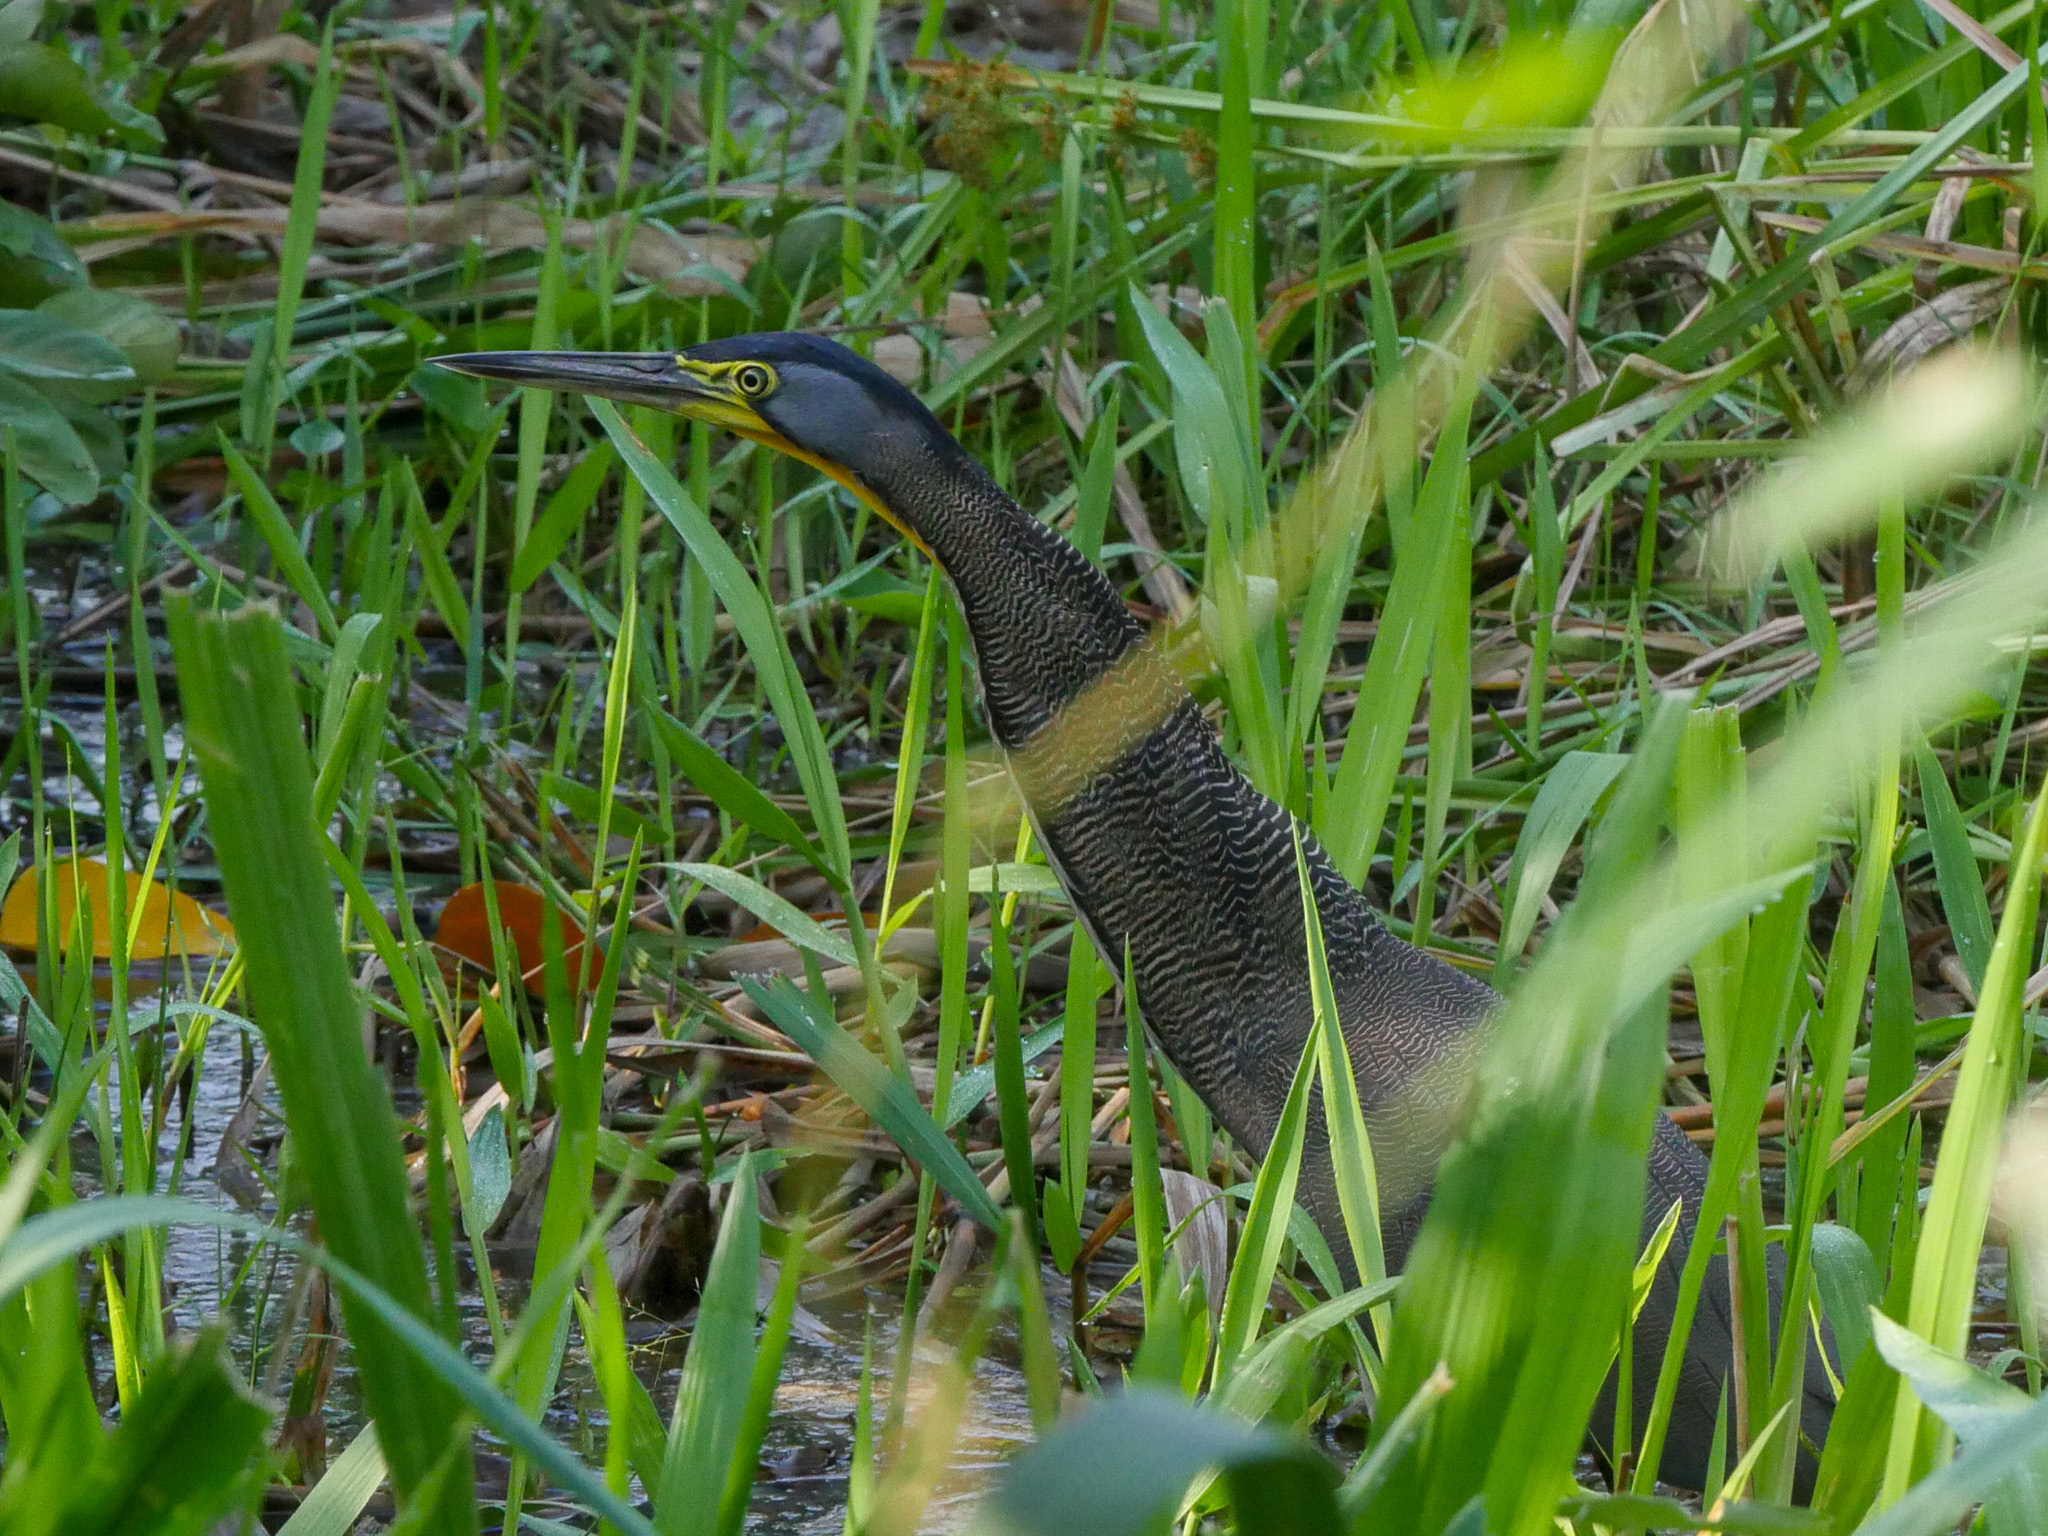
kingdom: Animalia
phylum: Chordata
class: Aves
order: Pelecaniformes
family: Ardeidae
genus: Tigrisoma
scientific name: Tigrisoma mexicanum
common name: Bare-throated tiger-heron
